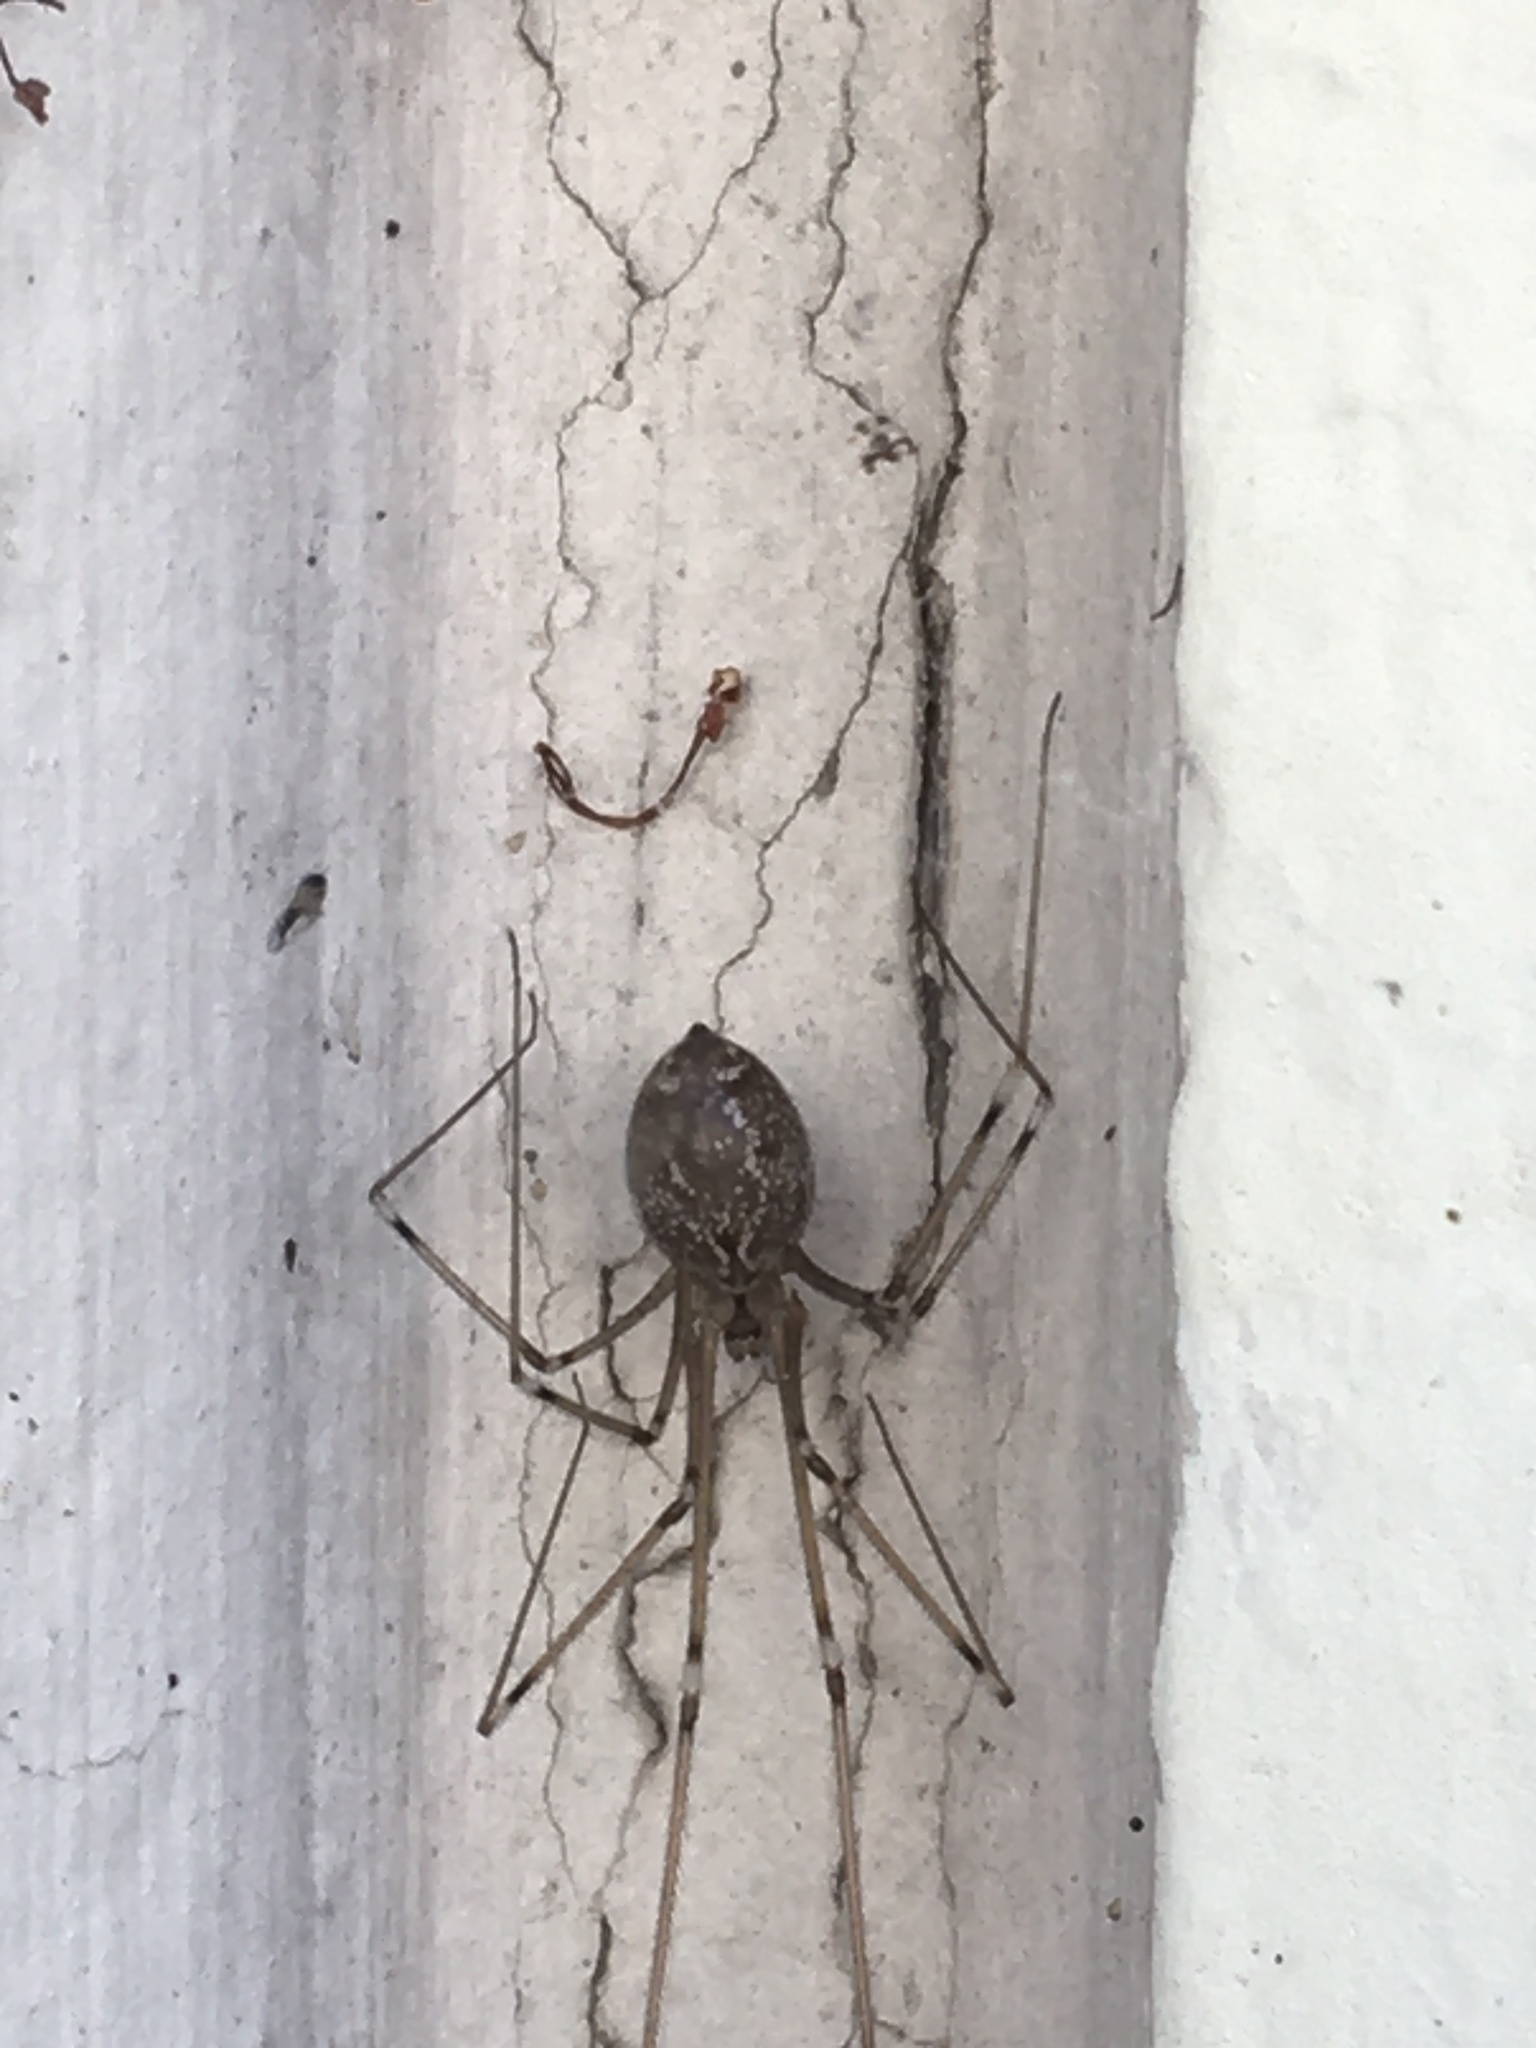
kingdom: Animalia
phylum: Arthropoda
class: Arachnida
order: Araneae
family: Pholcidae
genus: Holocnemus
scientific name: Holocnemus pluchei
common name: Marbled cellar spider
